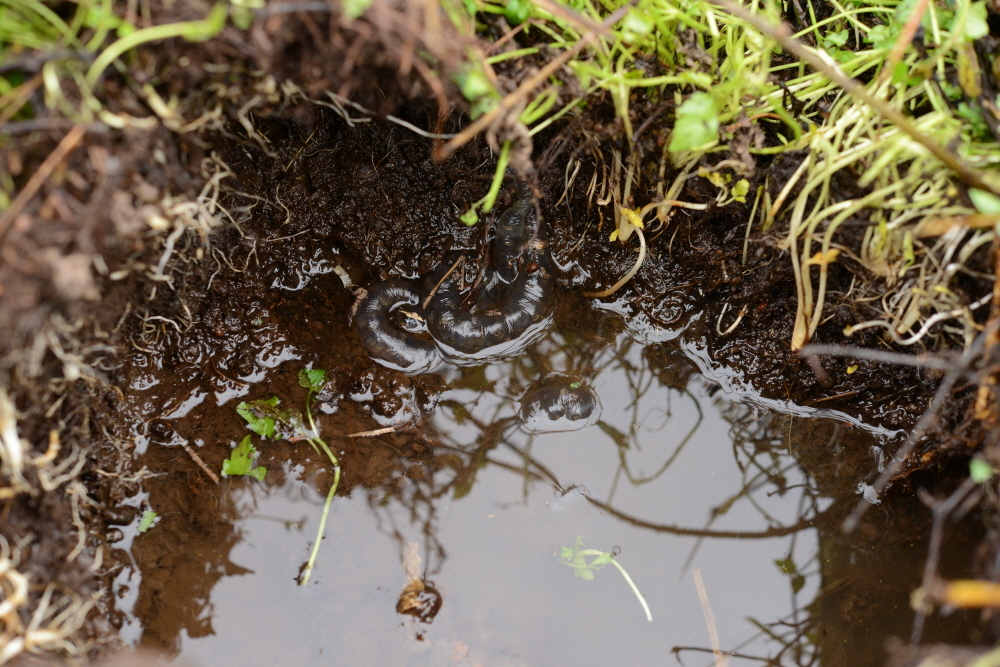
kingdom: Animalia
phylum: Chordata
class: Amphibia
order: Caudata
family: Hynobiidae
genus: Hynobius
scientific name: Hynobius quelpaertensis
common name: Cheju salamander
